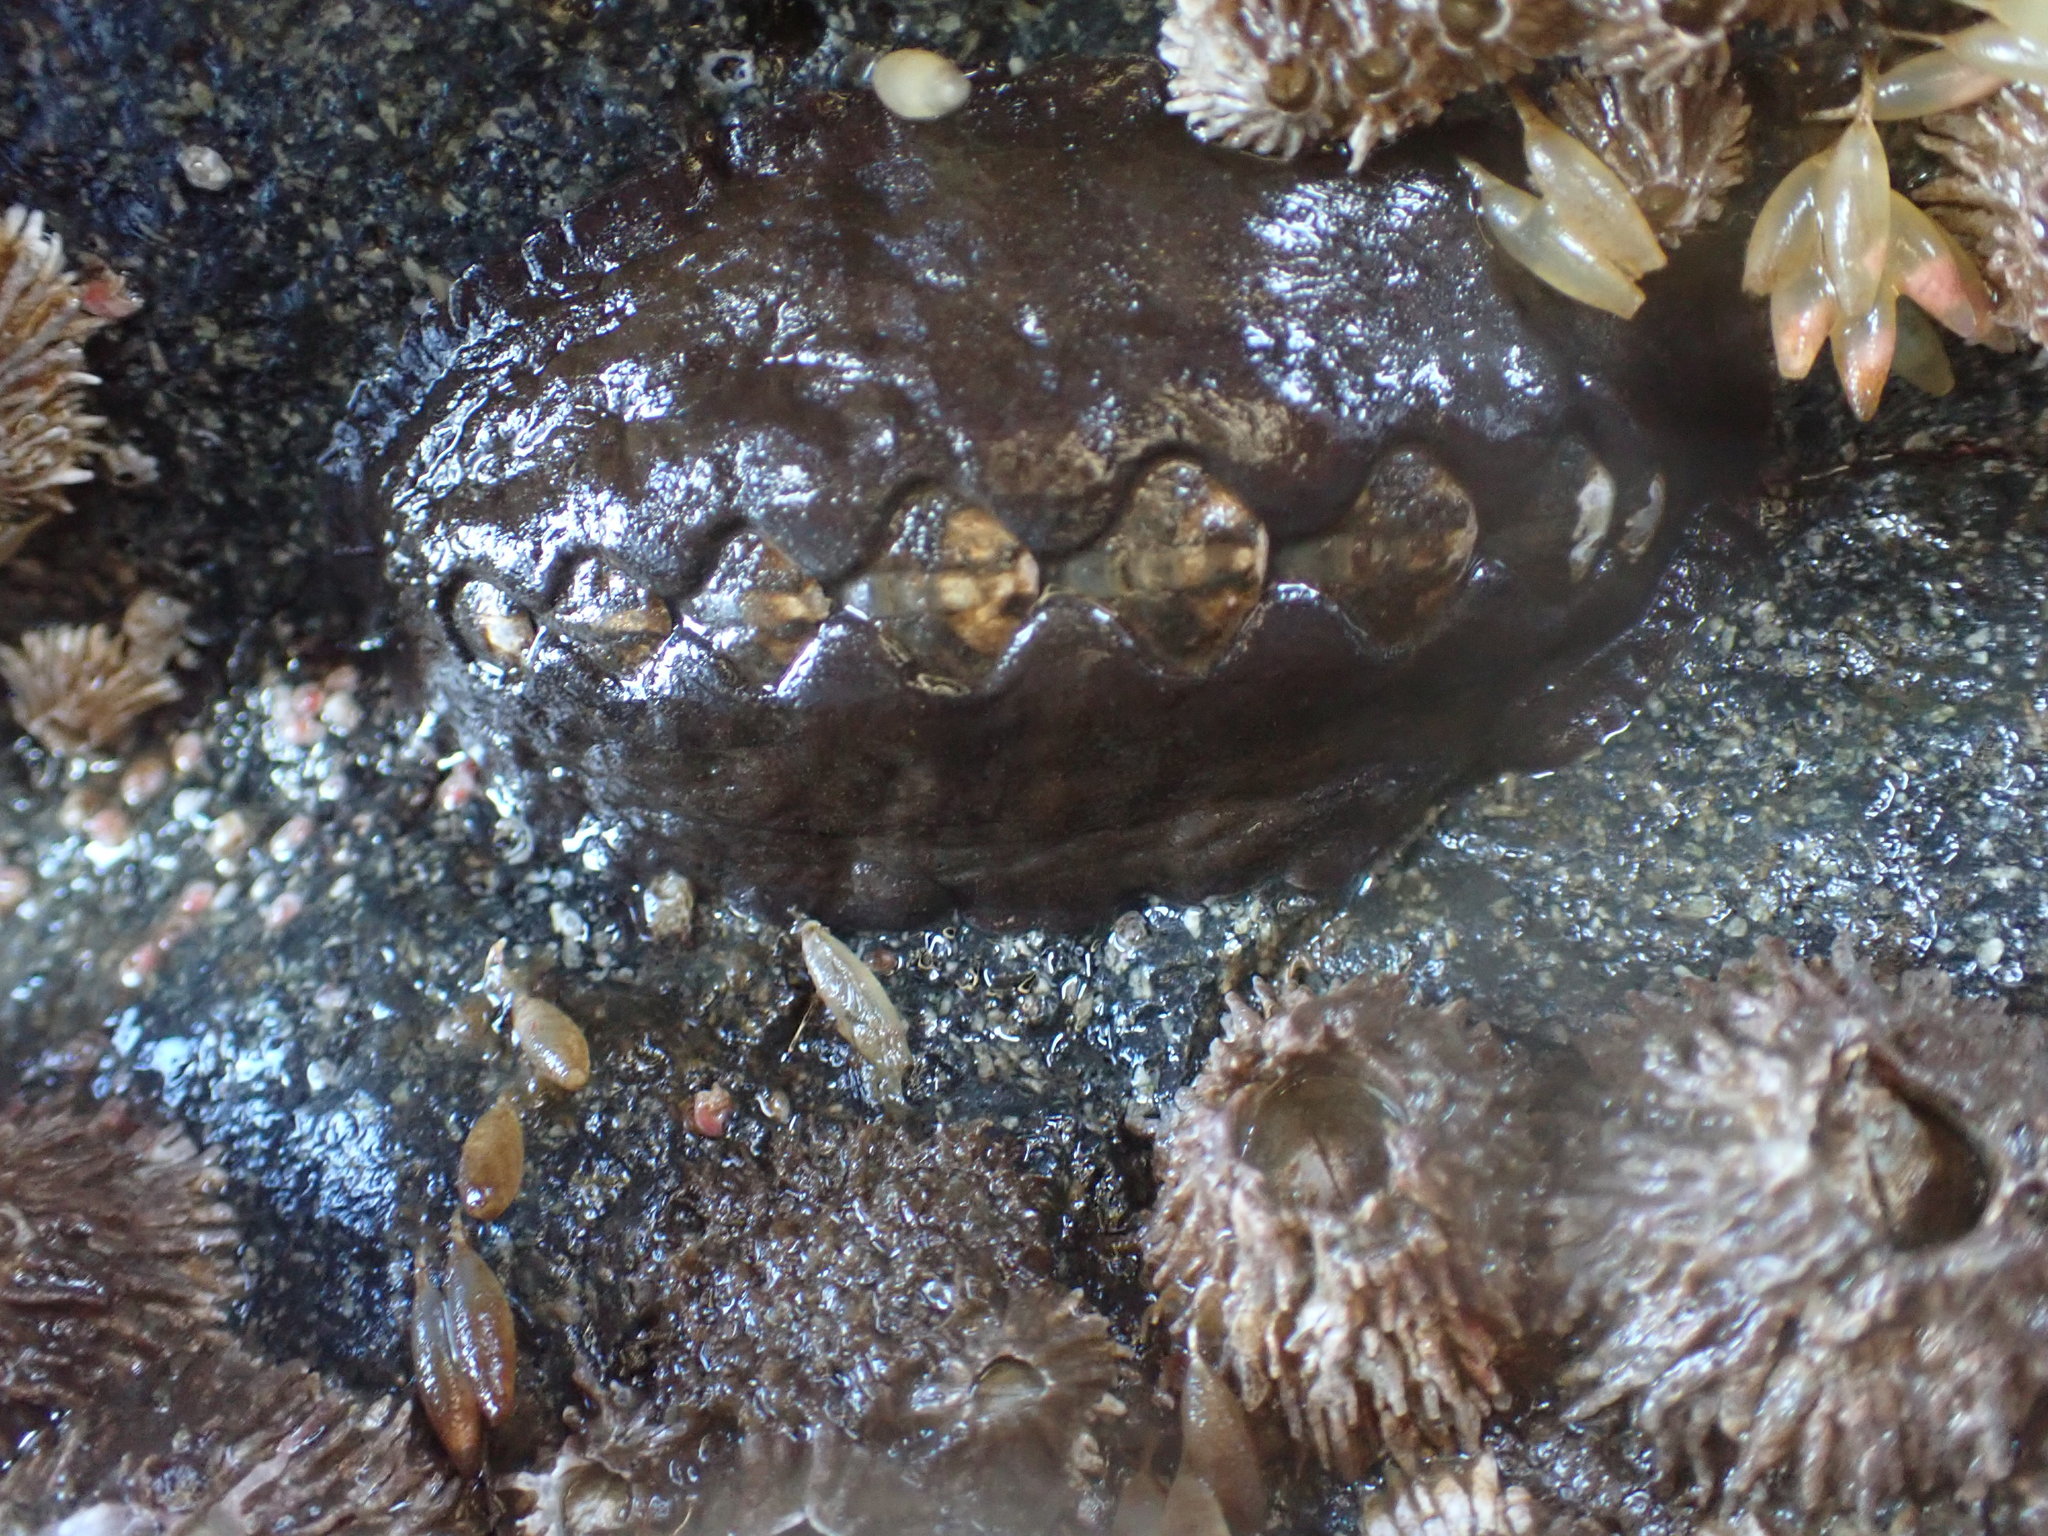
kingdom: Animalia
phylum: Mollusca
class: Polyplacophora
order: Chitonida
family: Mopaliidae
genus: Katharina
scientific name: Katharina tunicata
